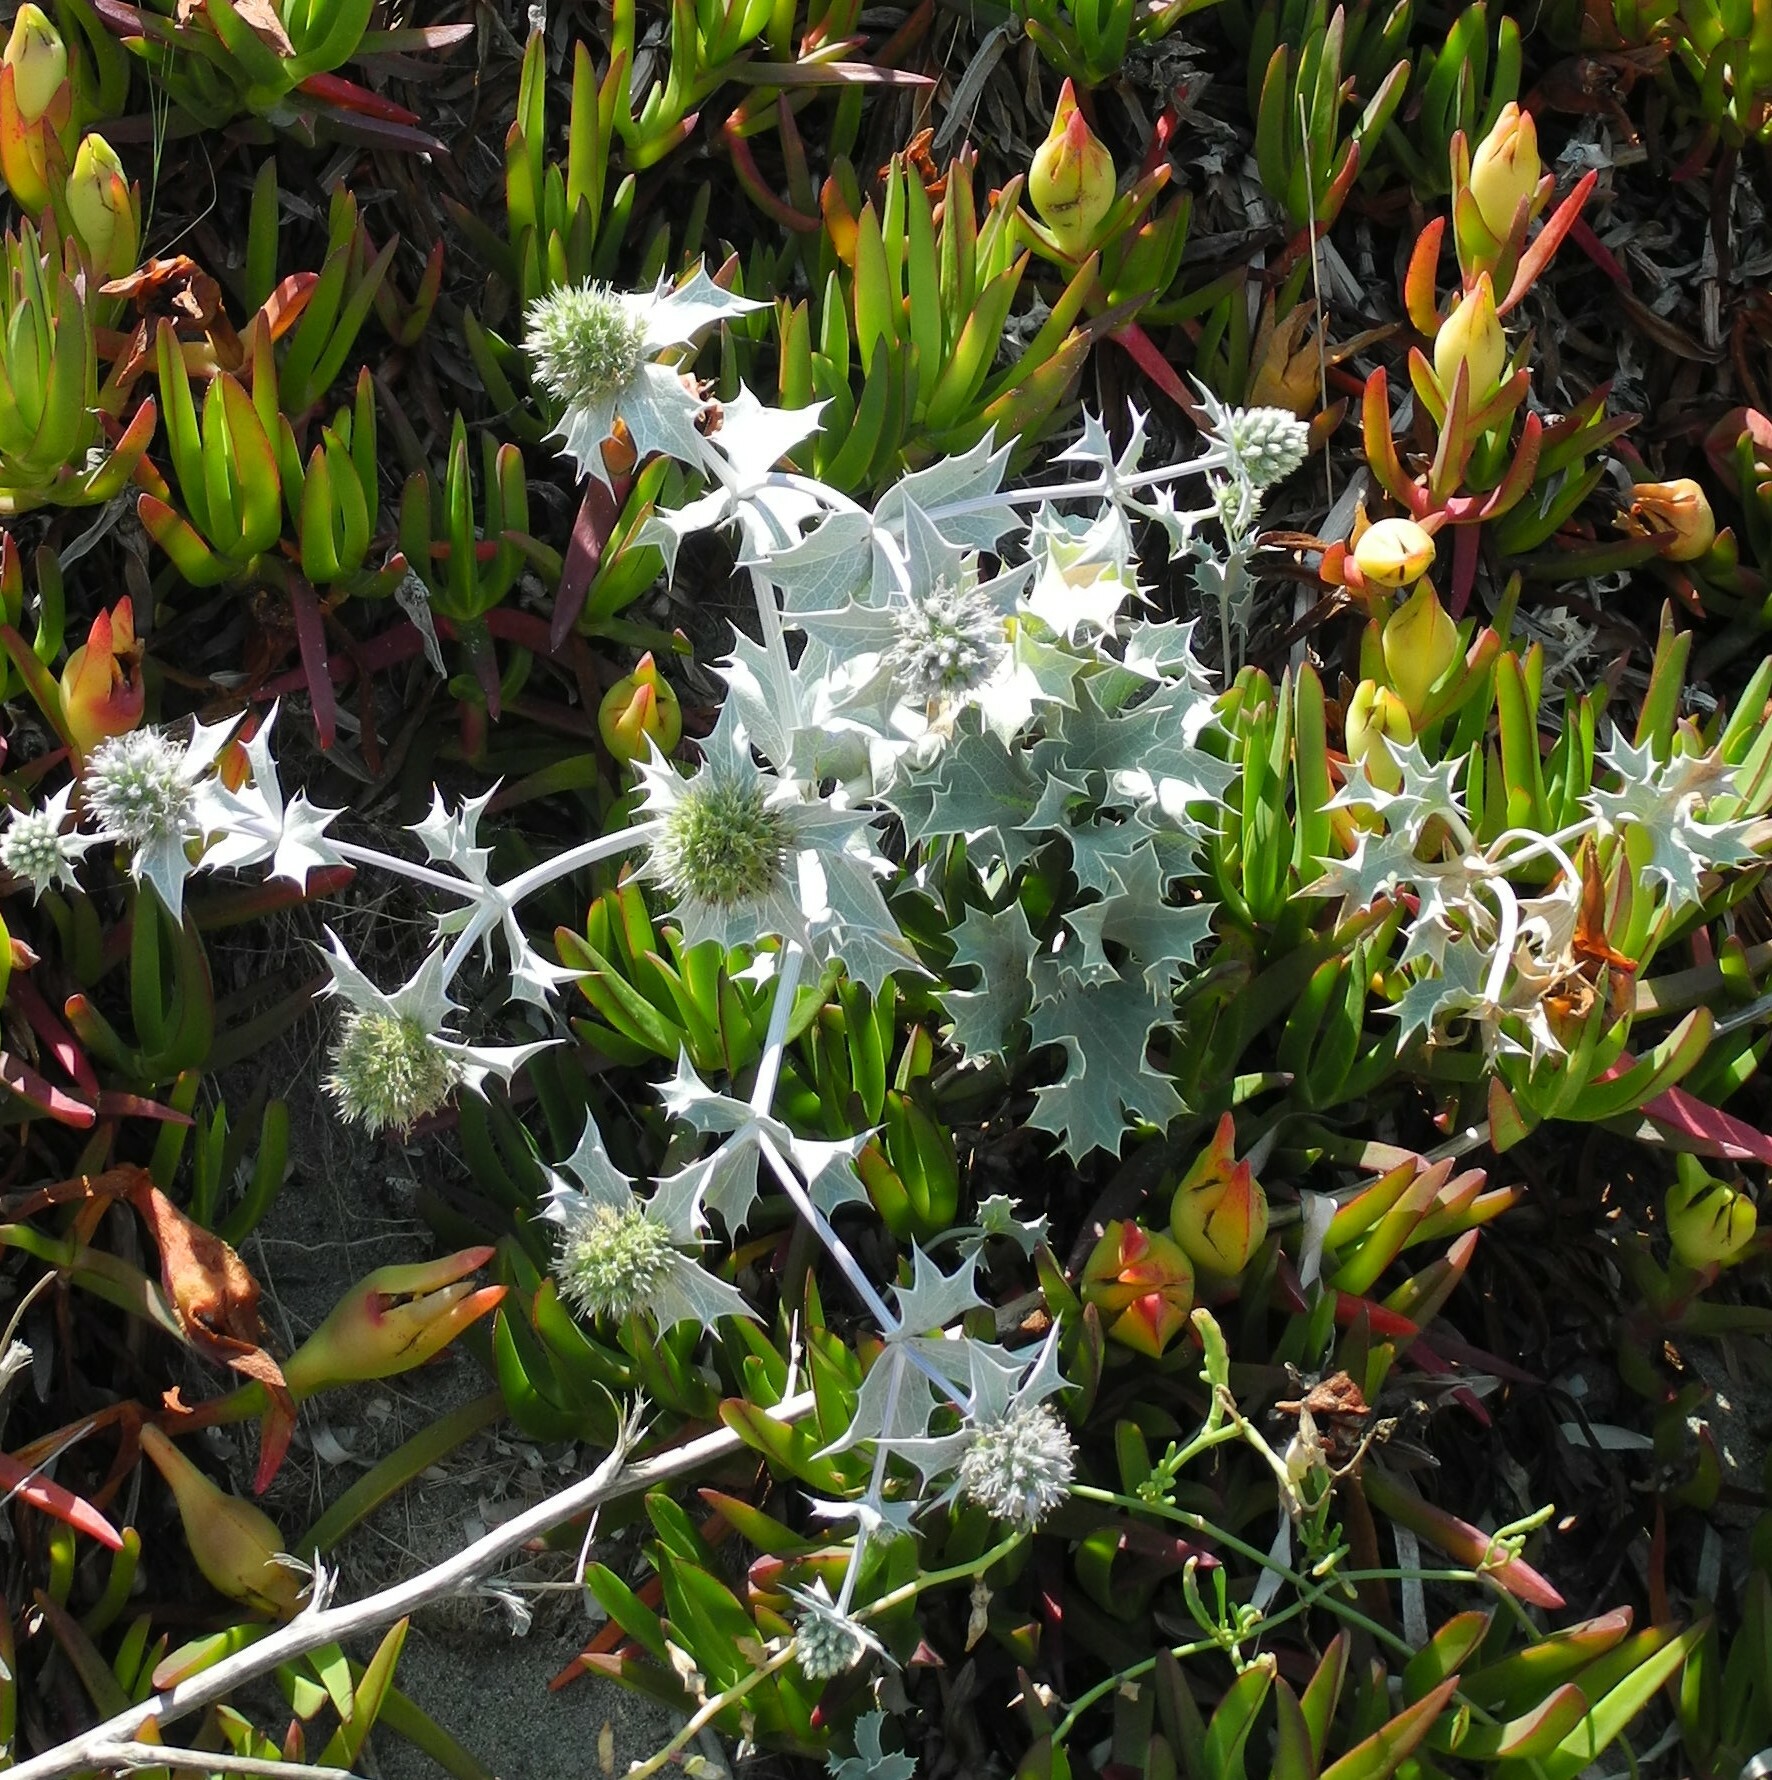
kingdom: Plantae
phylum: Tracheophyta
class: Magnoliopsida
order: Apiales
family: Apiaceae
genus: Eryngium
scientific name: Eryngium maritimum
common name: Sea-holly
